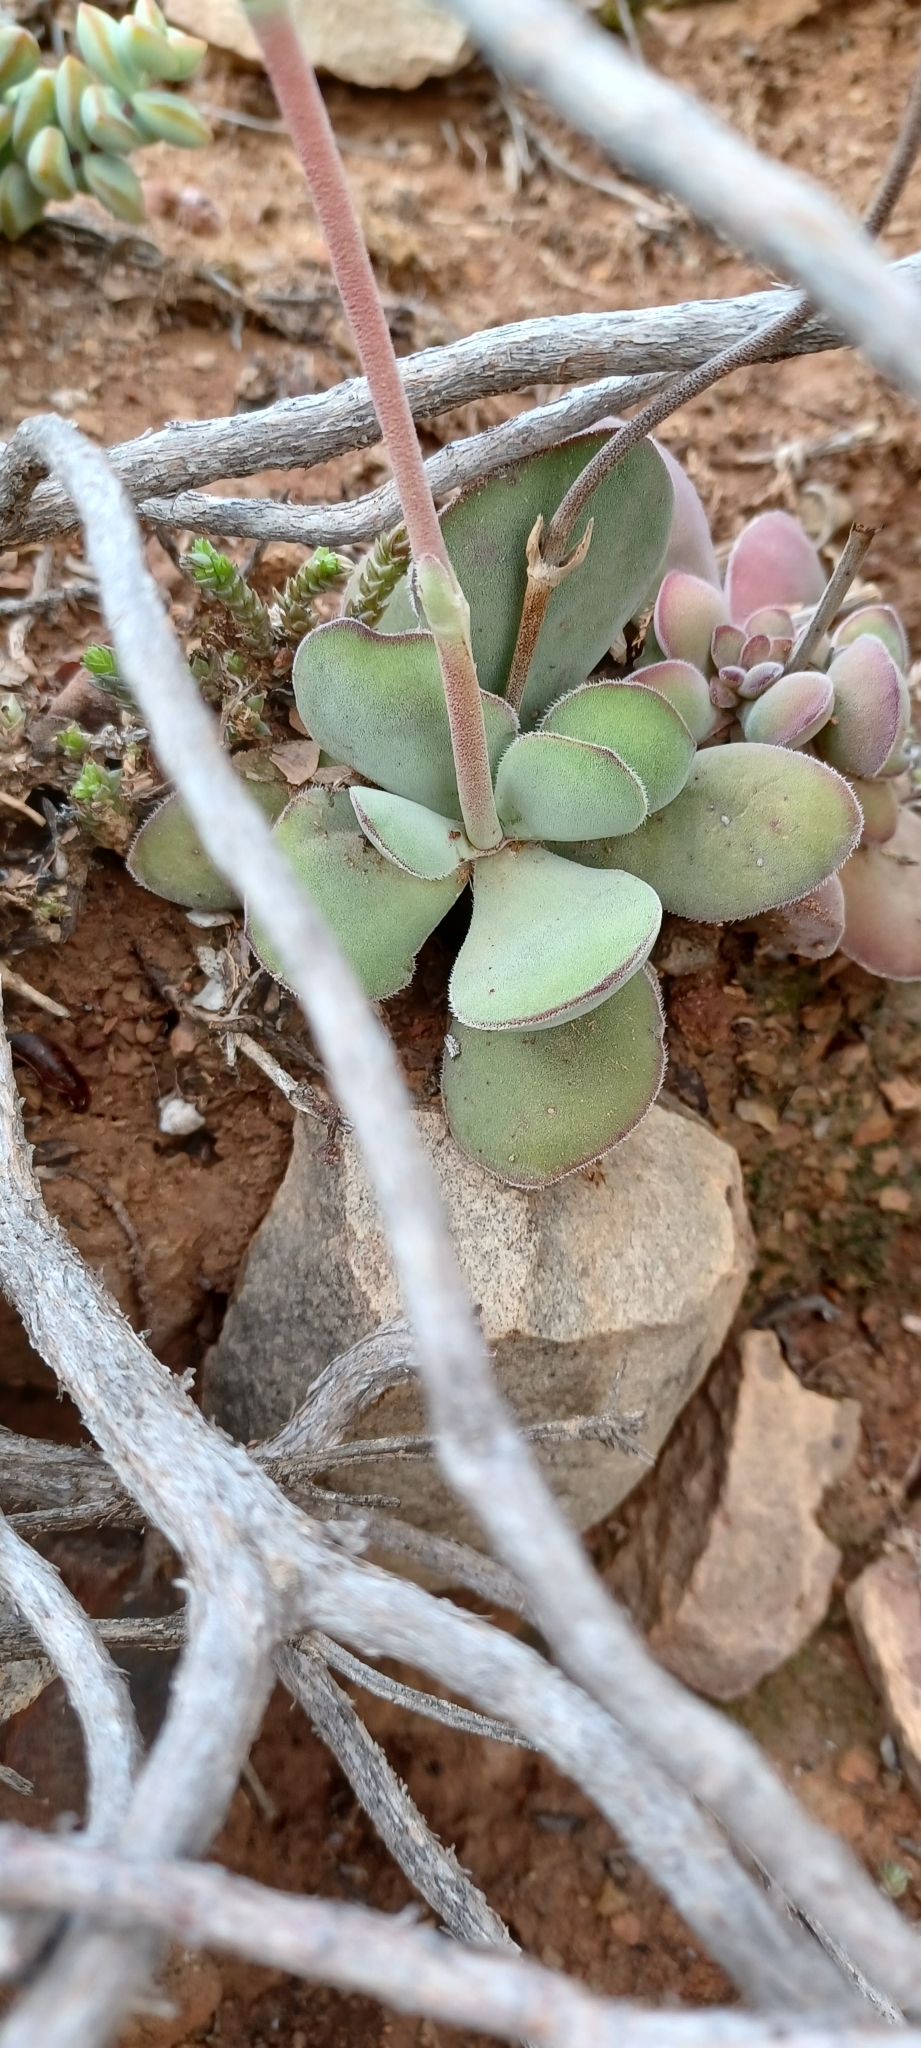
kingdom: Plantae
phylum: Tracheophyta
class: Magnoliopsida
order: Saxifragales
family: Crassulaceae
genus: Crassula
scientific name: Crassula cotyledonis
